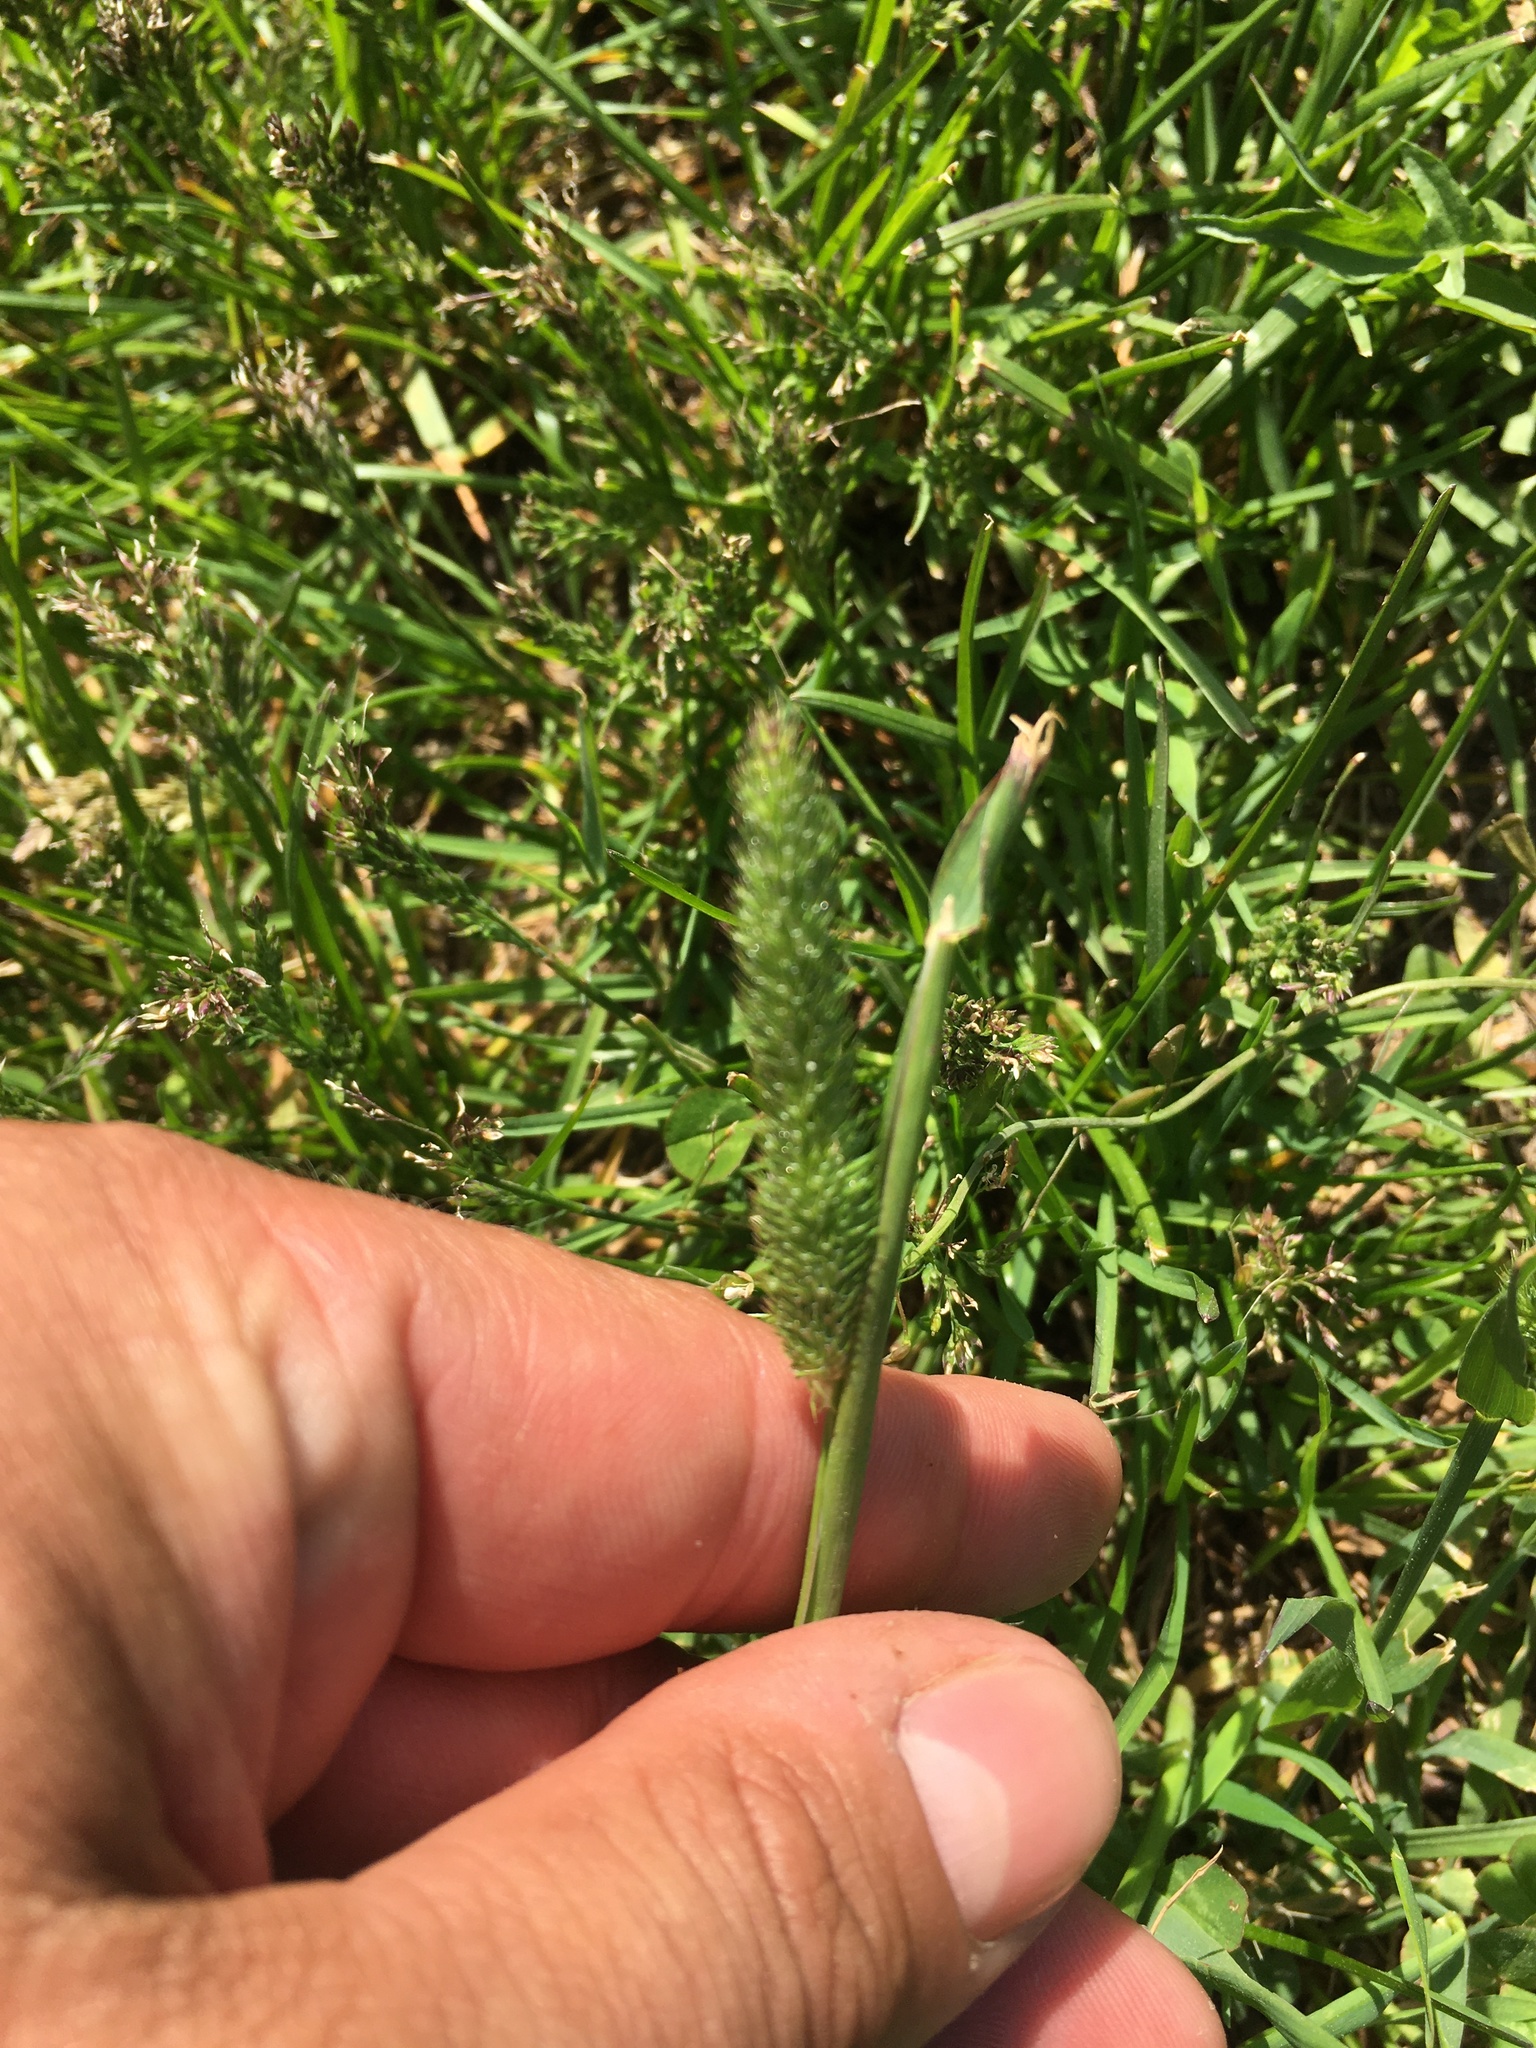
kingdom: Plantae
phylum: Tracheophyta
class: Liliopsida
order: Poales
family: Poaceae
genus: Phleum
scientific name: Phleum pratense
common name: Timothy grass
